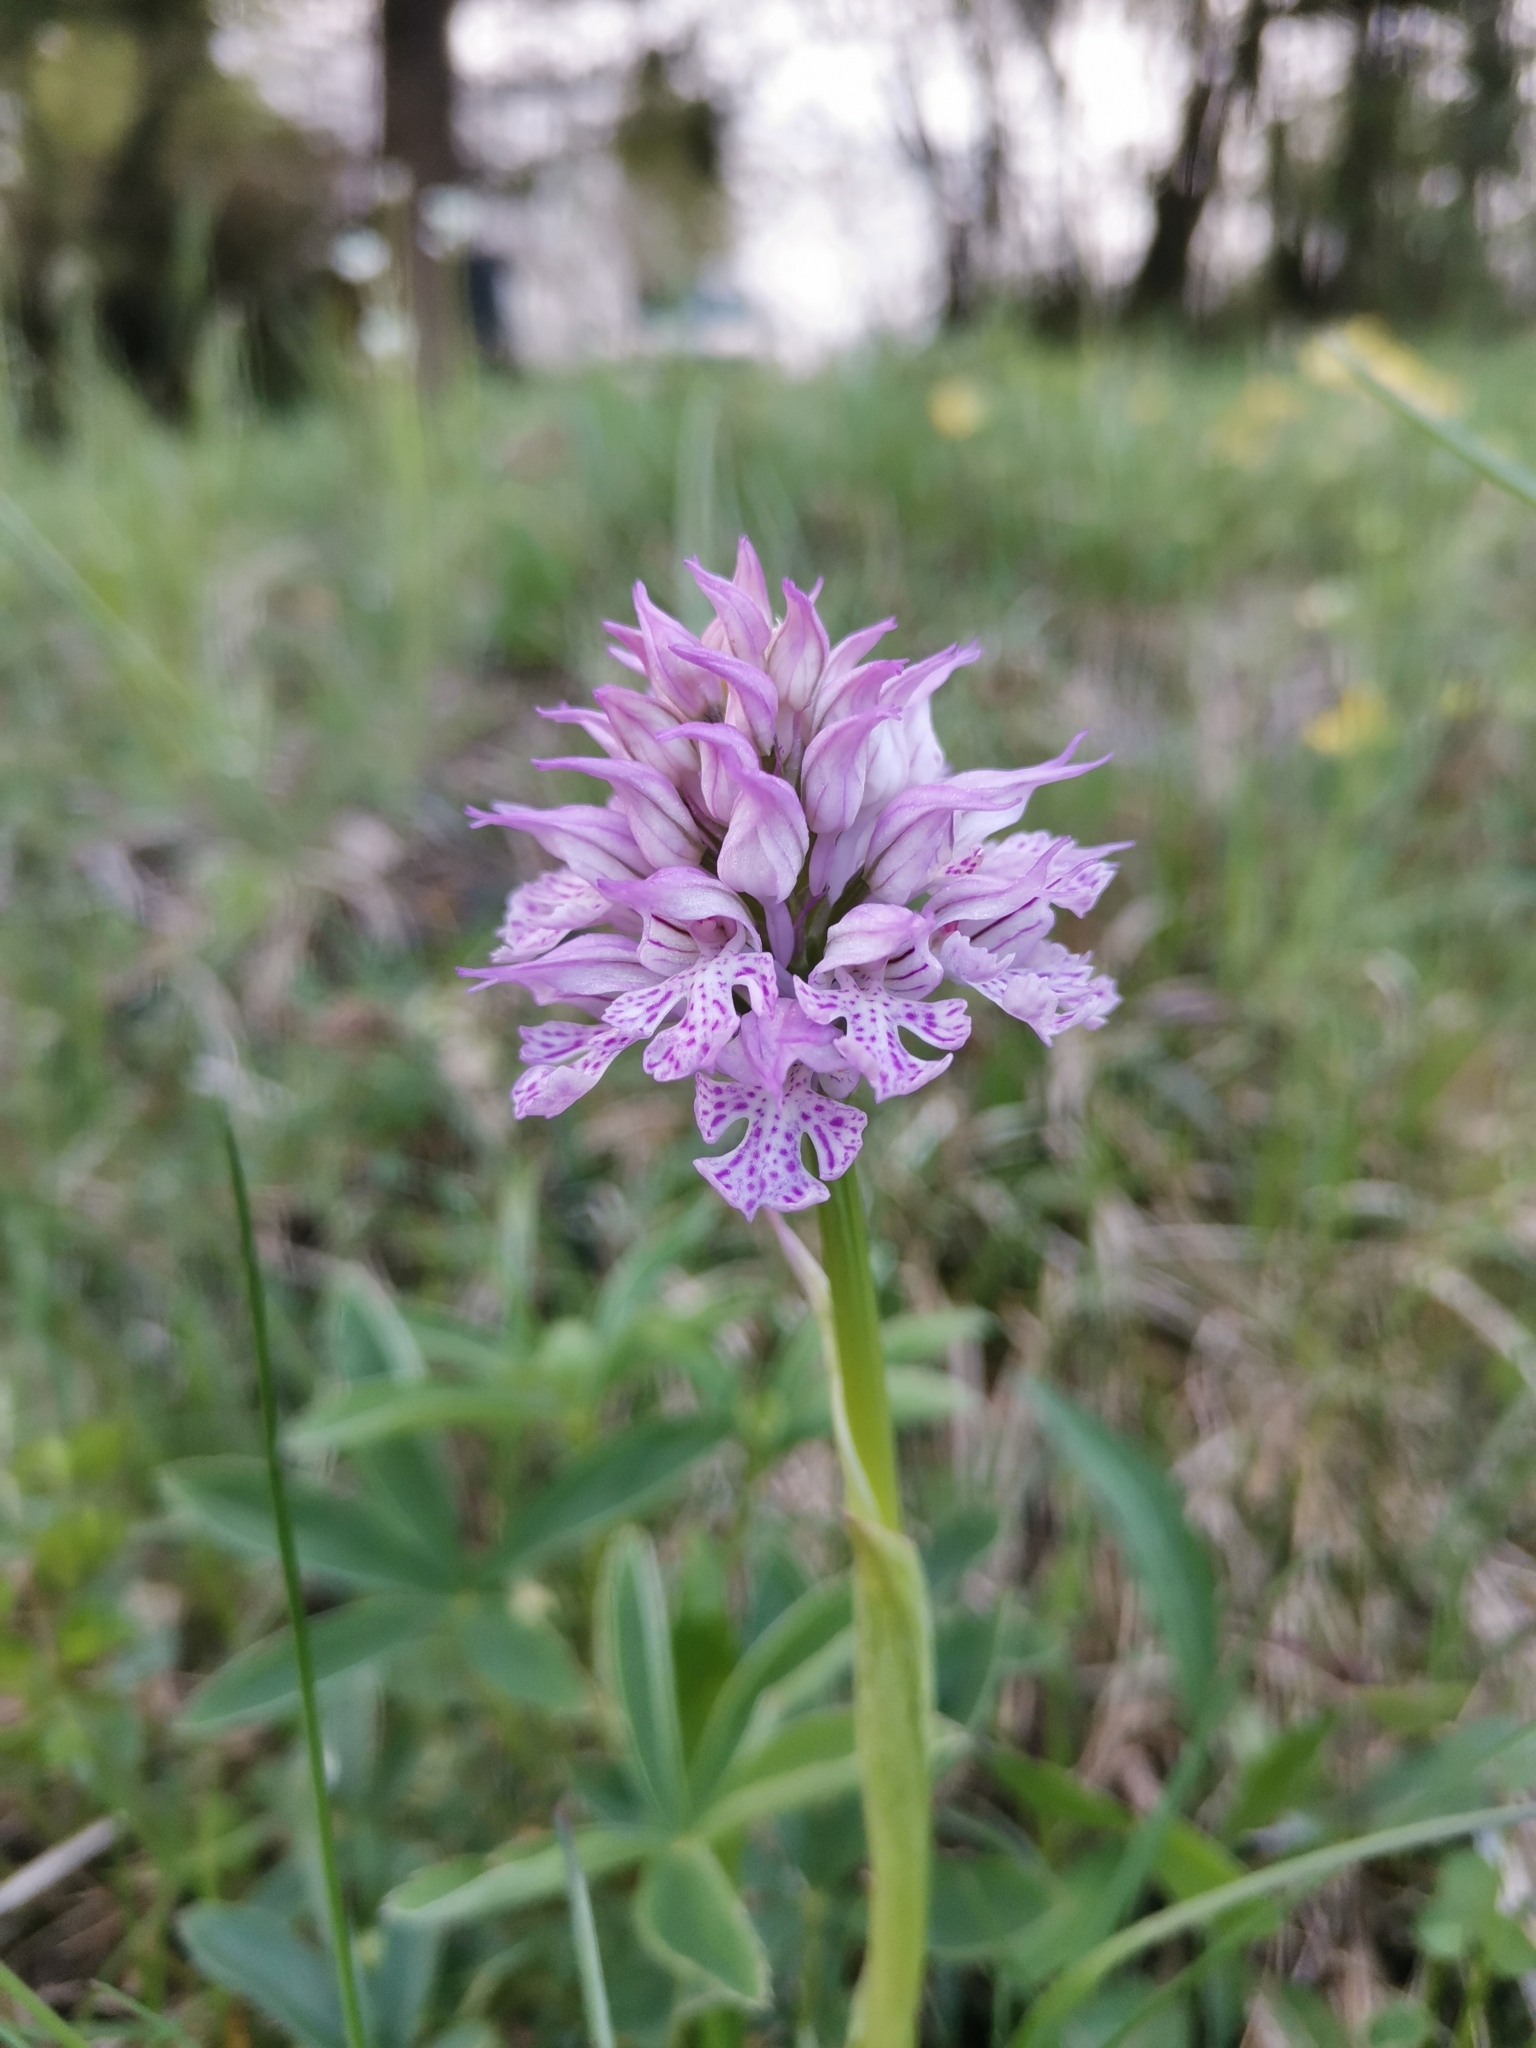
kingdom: Plantae
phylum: Tracheophyta
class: Liliopsida
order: Asparagales
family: Orchidaceae
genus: Neotinea
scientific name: Neotinea tridentata
